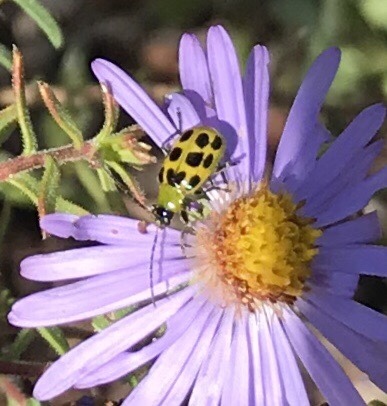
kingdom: Animalia
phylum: Arthropoda
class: Insecta
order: Coleoptera
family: Chrysomelidae
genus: Diabrotica
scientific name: Diabrotica undecimpunctata
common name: Spotted cucumber beetle
